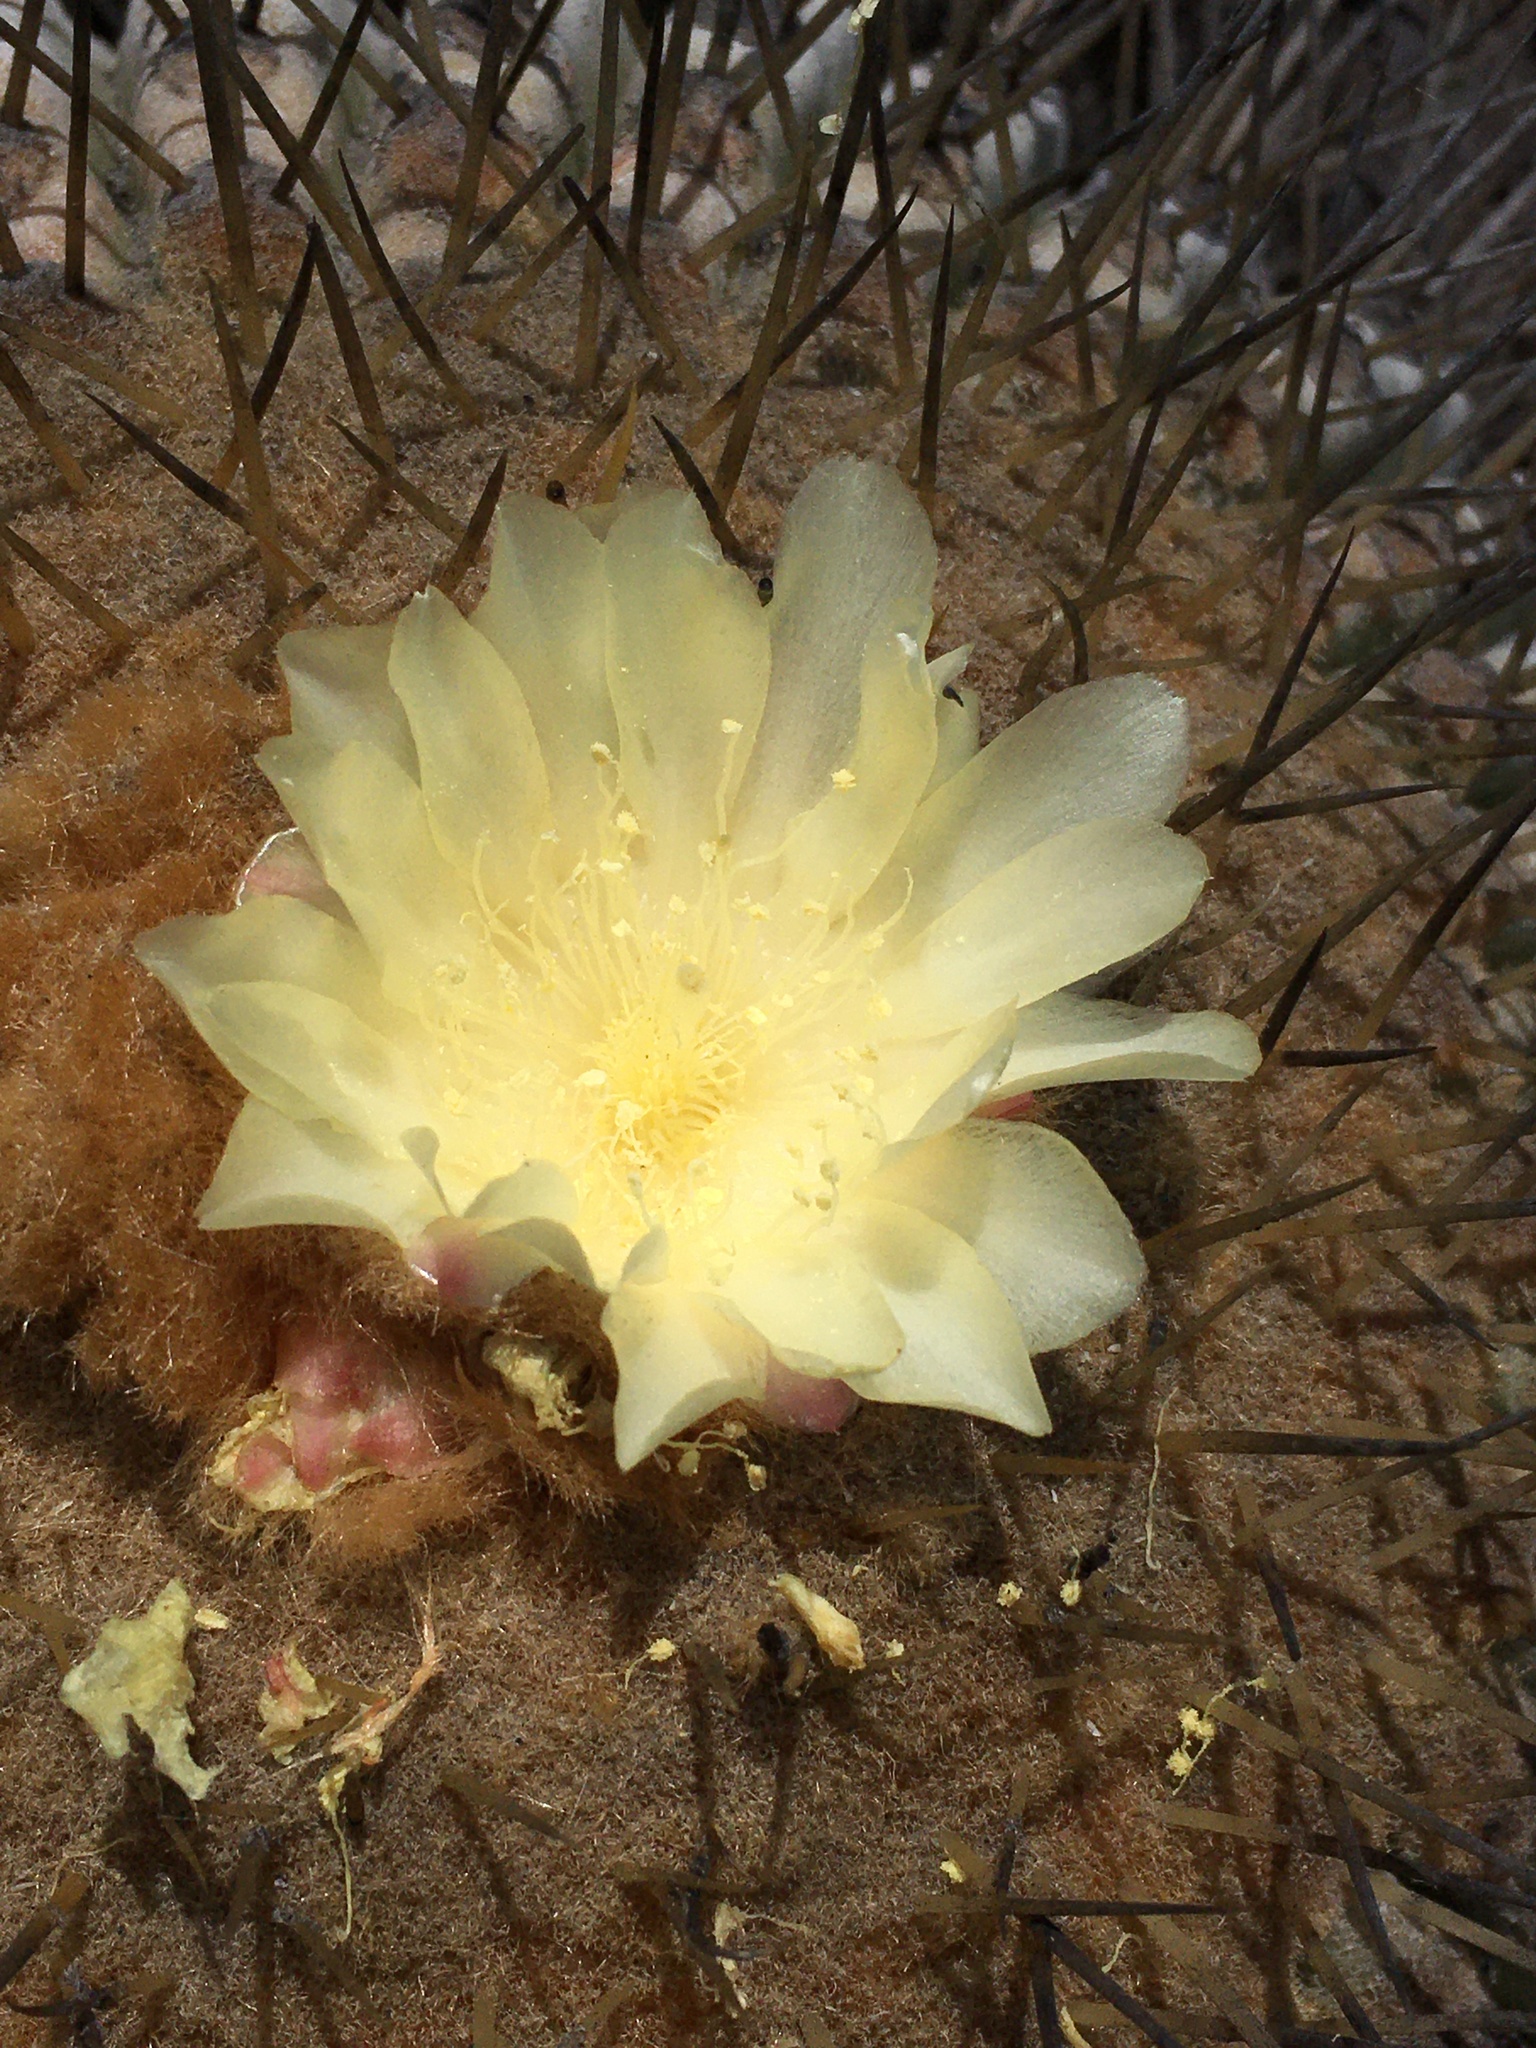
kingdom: Plantae
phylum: Tracheophyta
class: Magnoliopsida
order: Caryophyllales
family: Cactaceae
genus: Copiapoa
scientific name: Copiapoa gigantea
